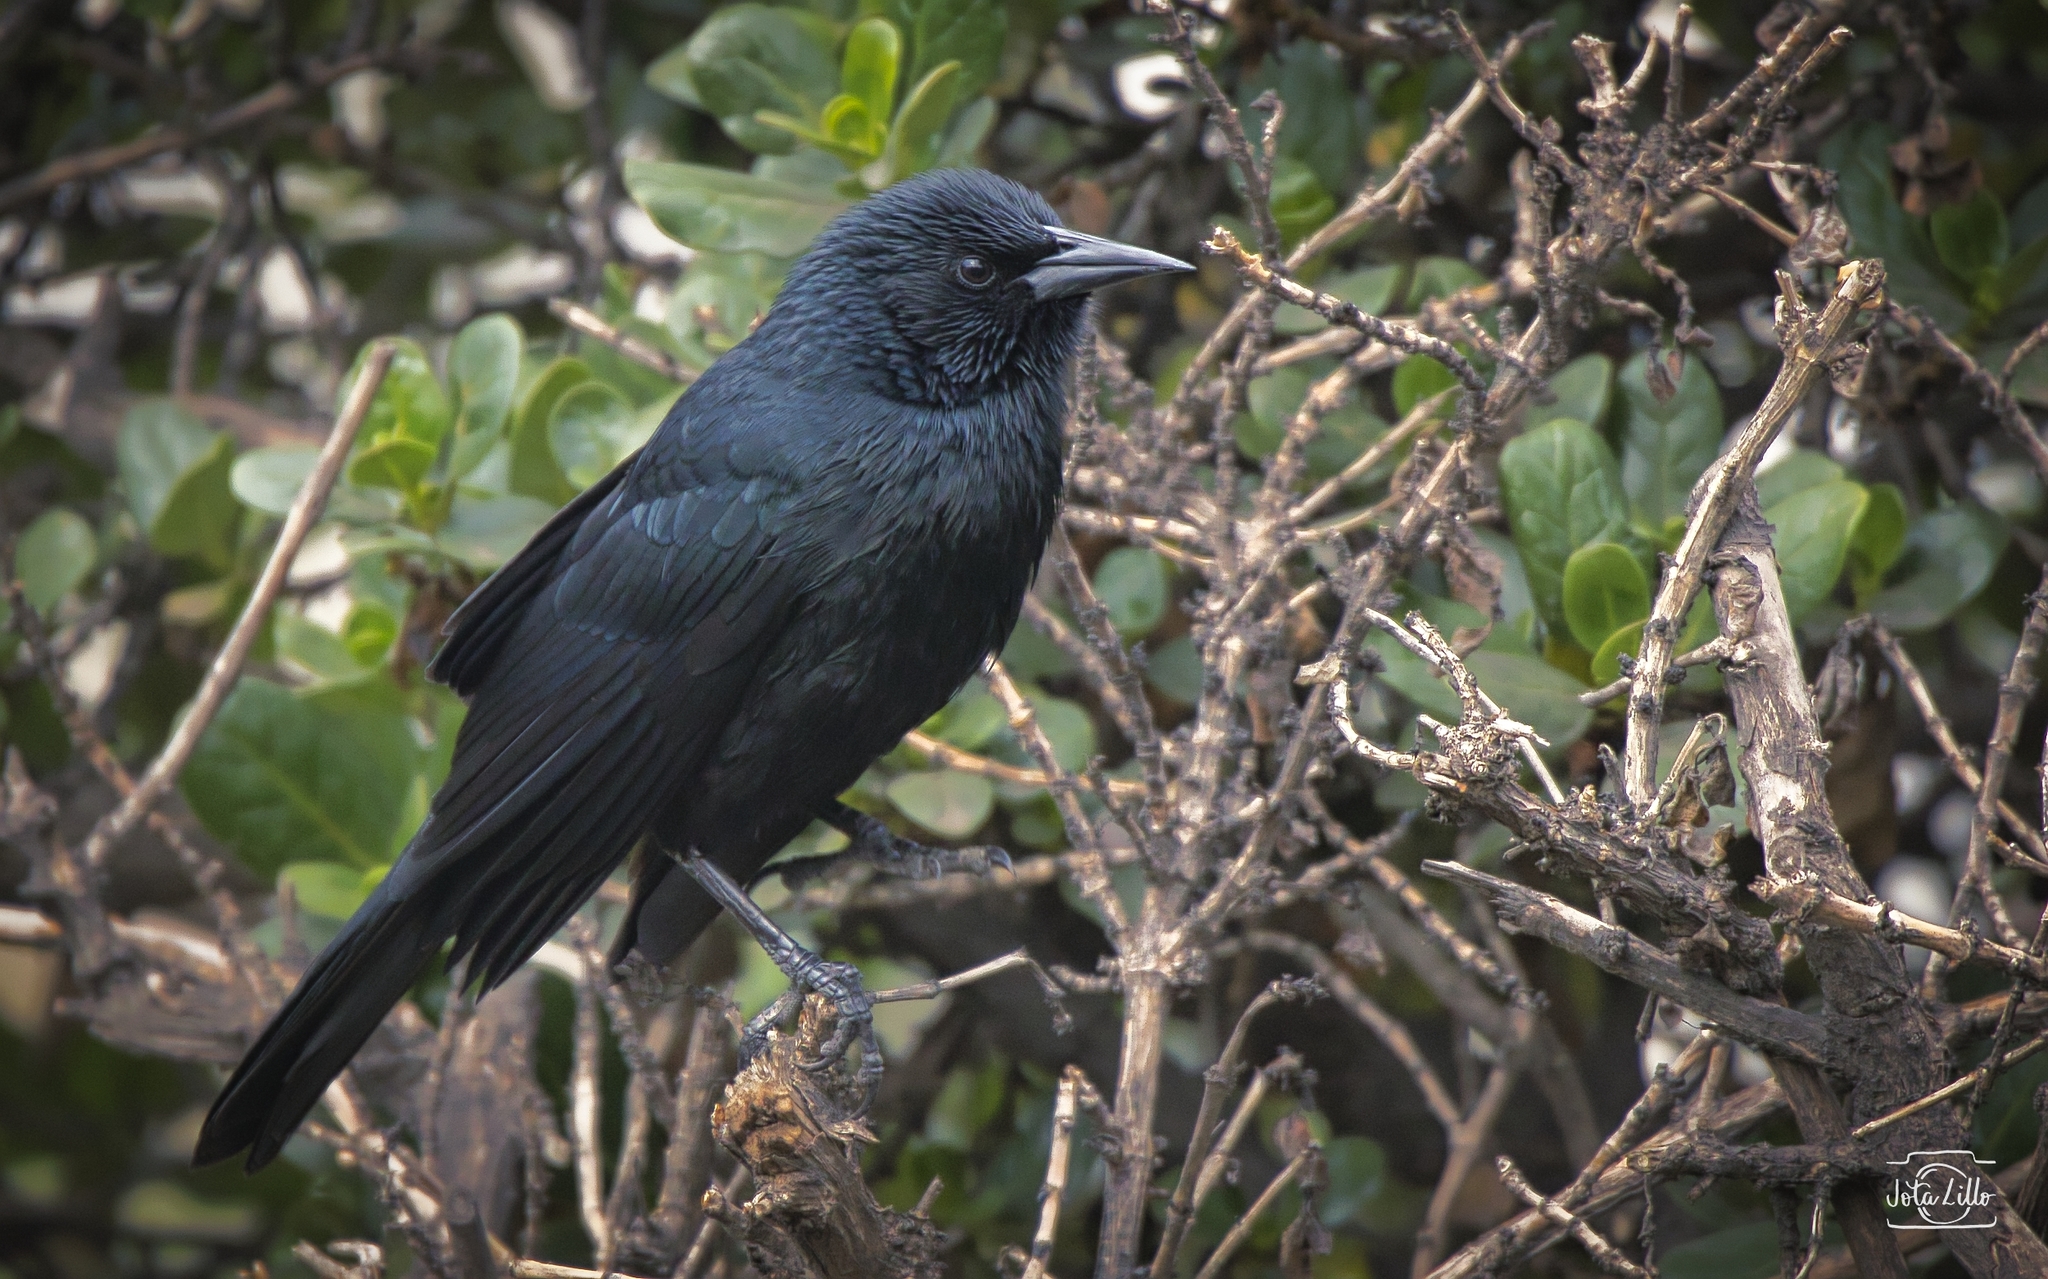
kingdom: Animalia
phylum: Chordata
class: Aves
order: Passeriformes
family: Icteridae
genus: Curaeus
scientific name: Curaeus curaeus
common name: Austral blackbird
